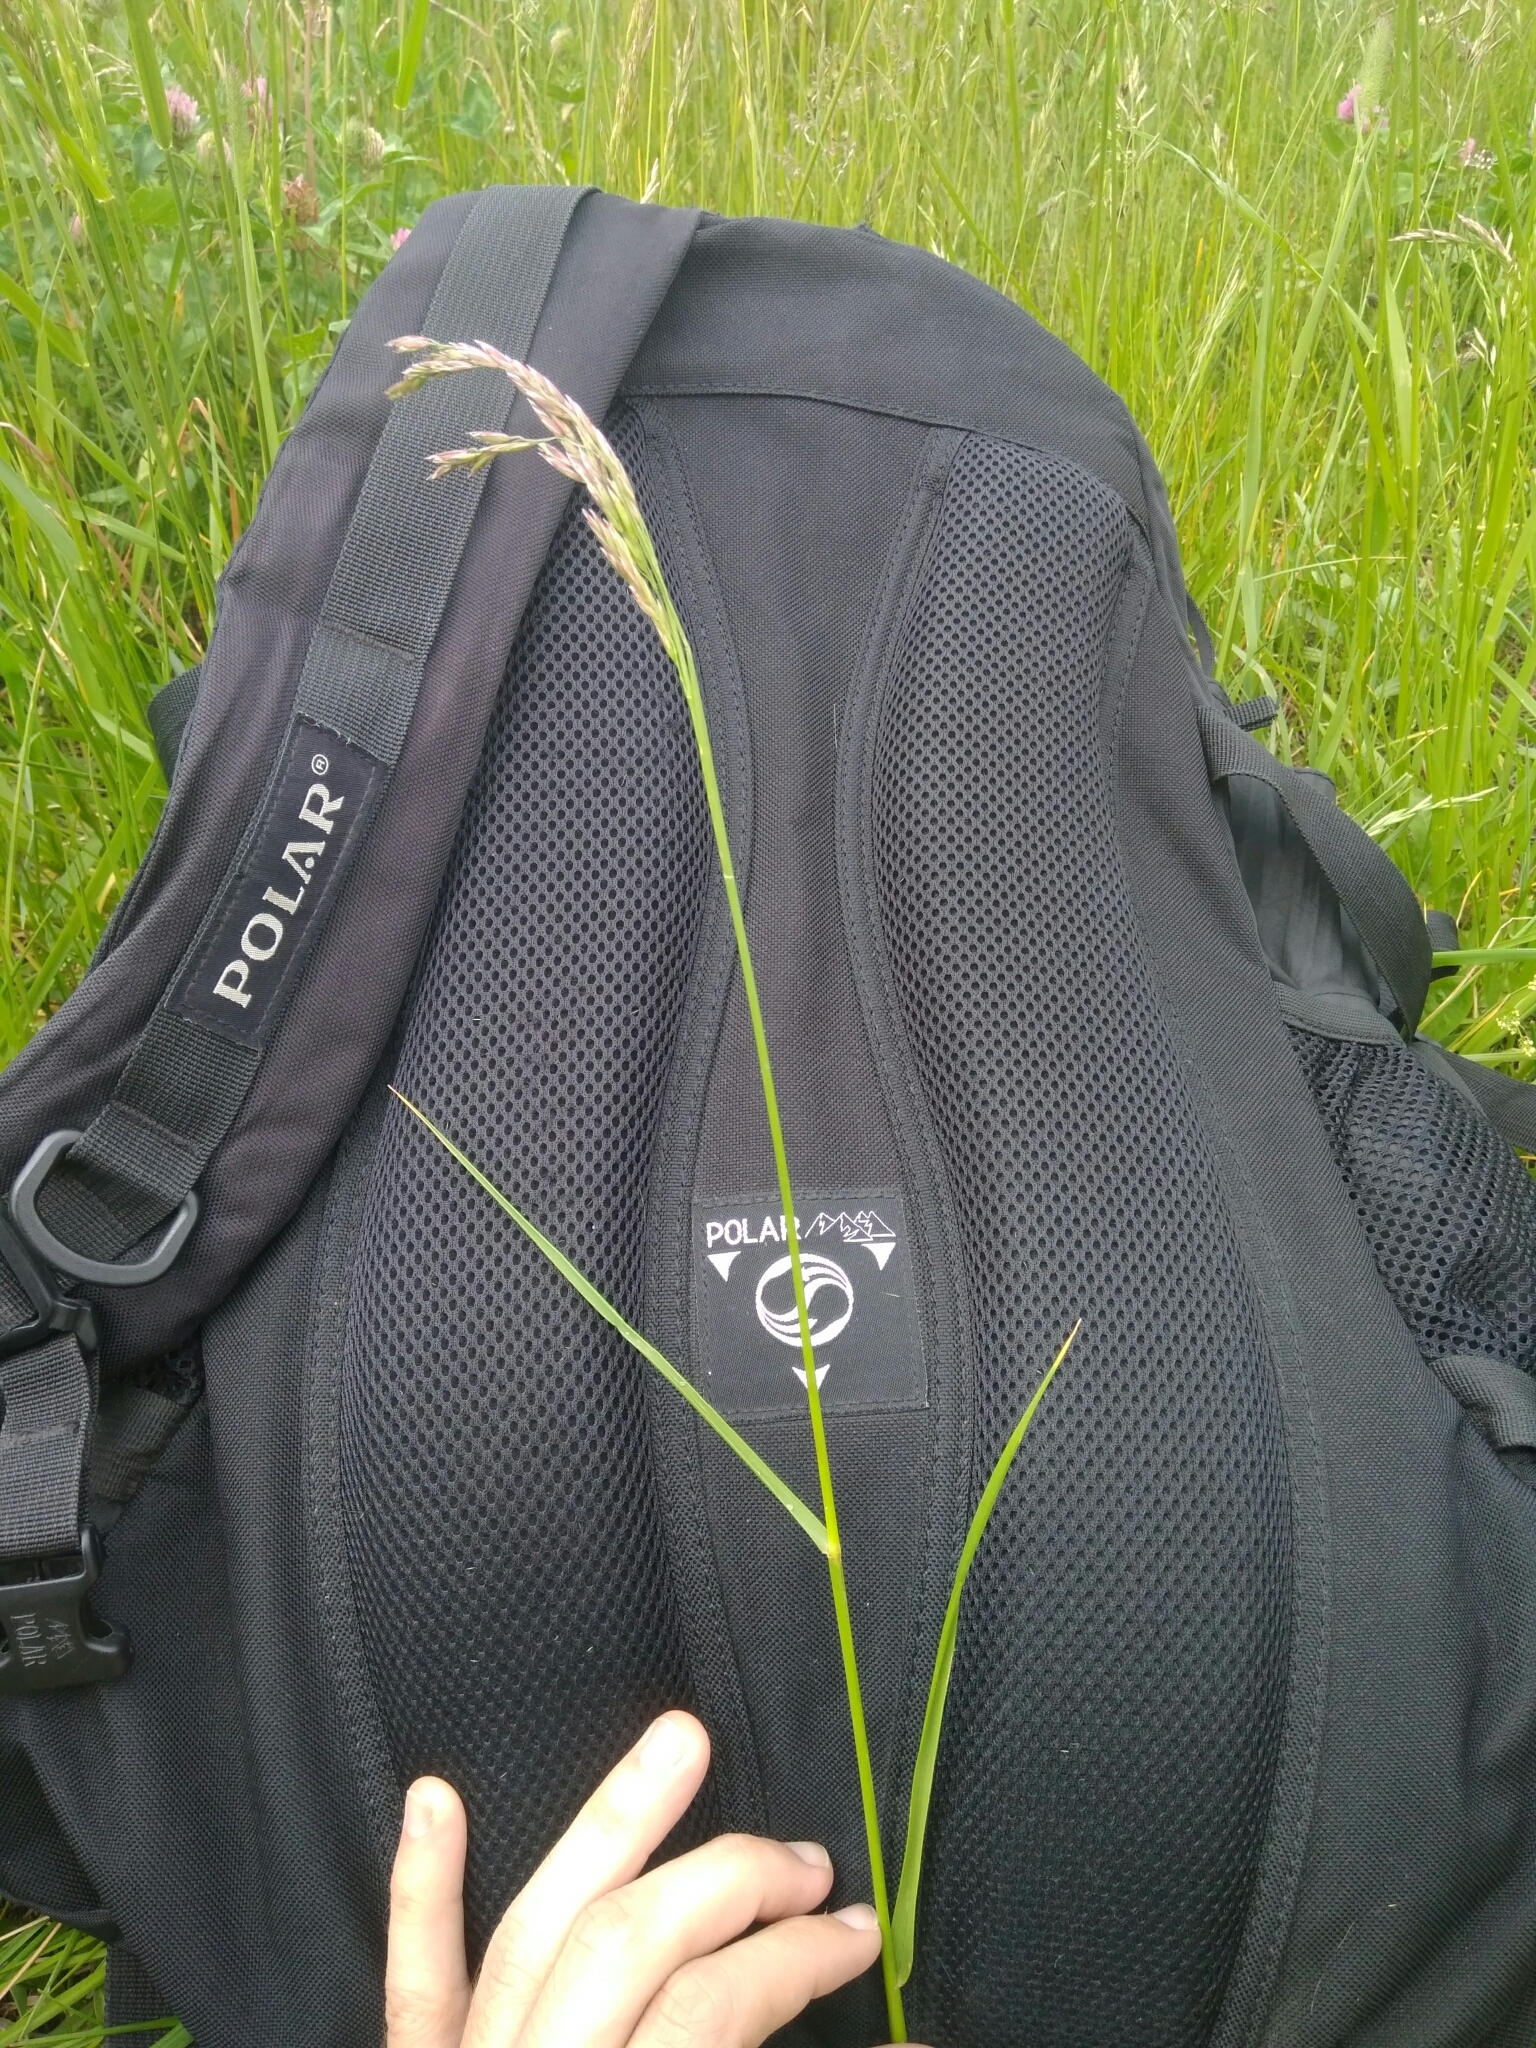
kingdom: Plantae
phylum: Tracheophyta
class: Liliopsida
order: Poales
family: Poaceae
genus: Lolium
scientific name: Lolium arundinaceum
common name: Reed fescue
